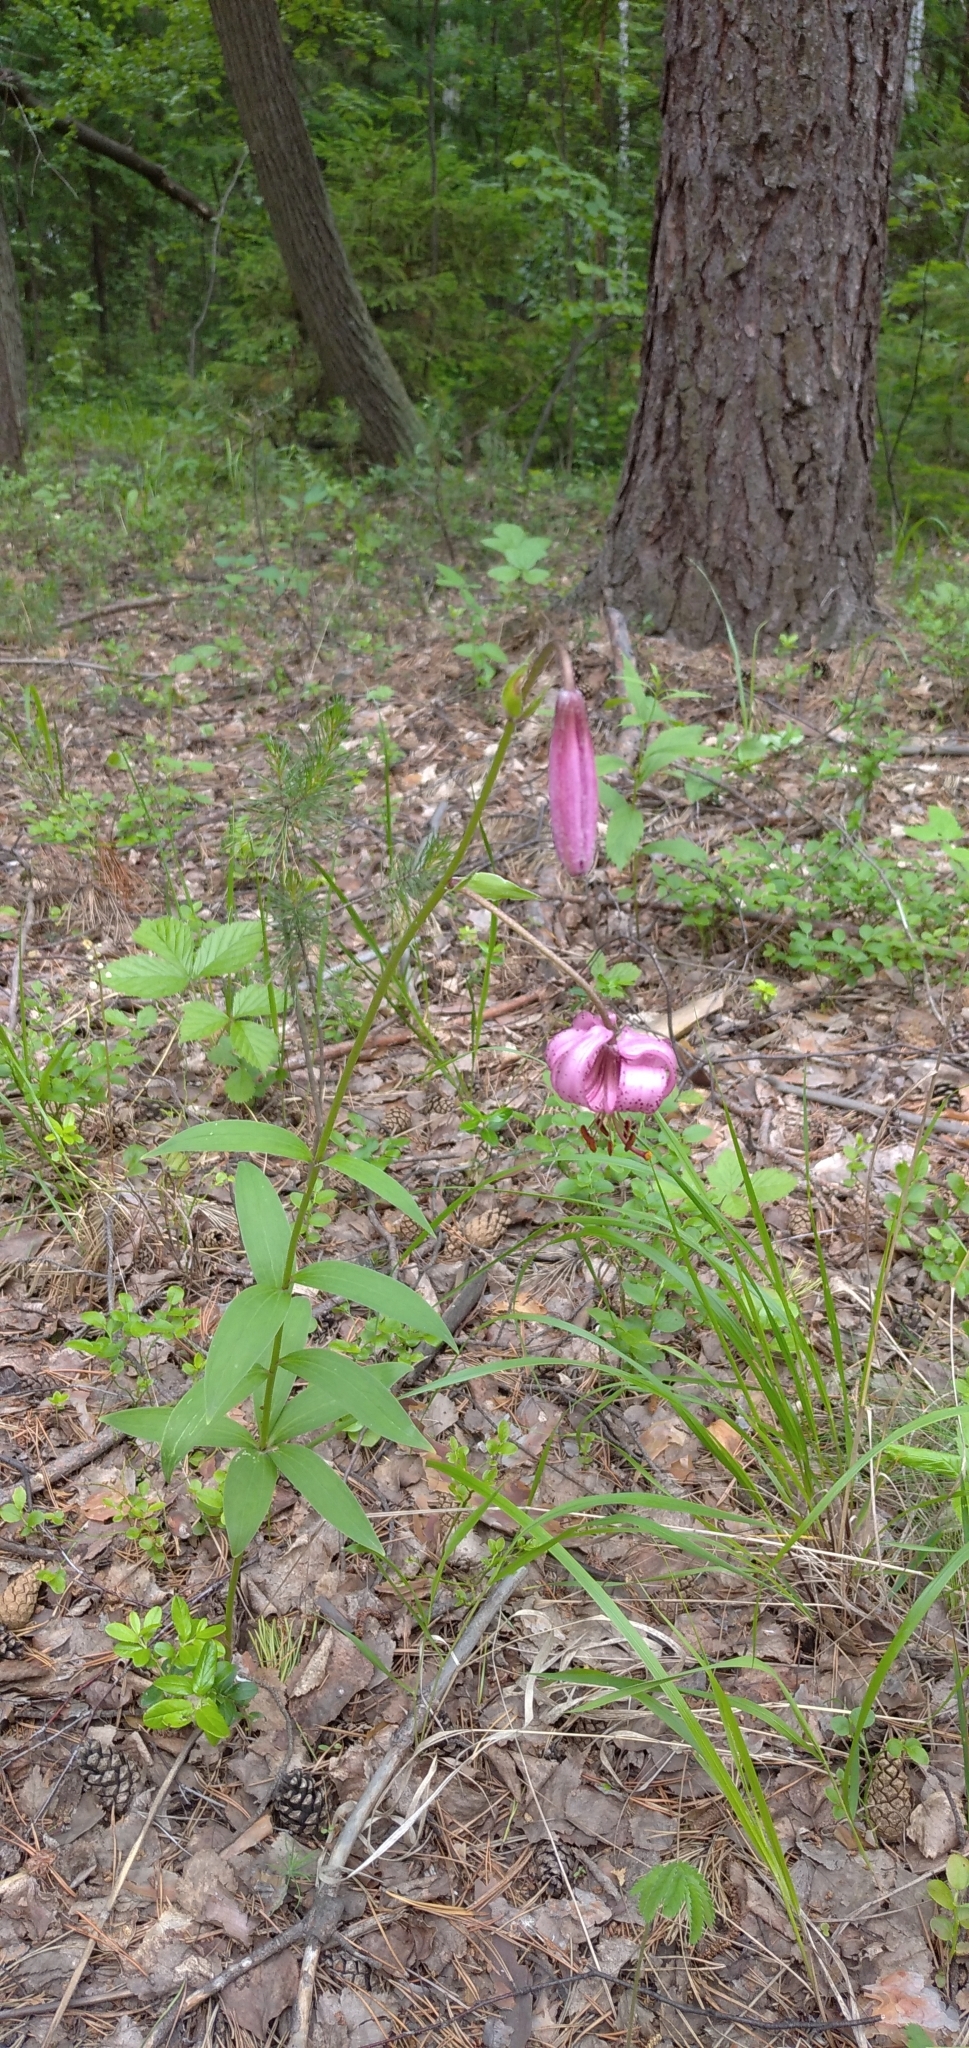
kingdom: Plantae
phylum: Tracheophyta
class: Liliopsida
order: Liliales
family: Liliaceae
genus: Lilium
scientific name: Lilium martagon
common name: Martagon lily
